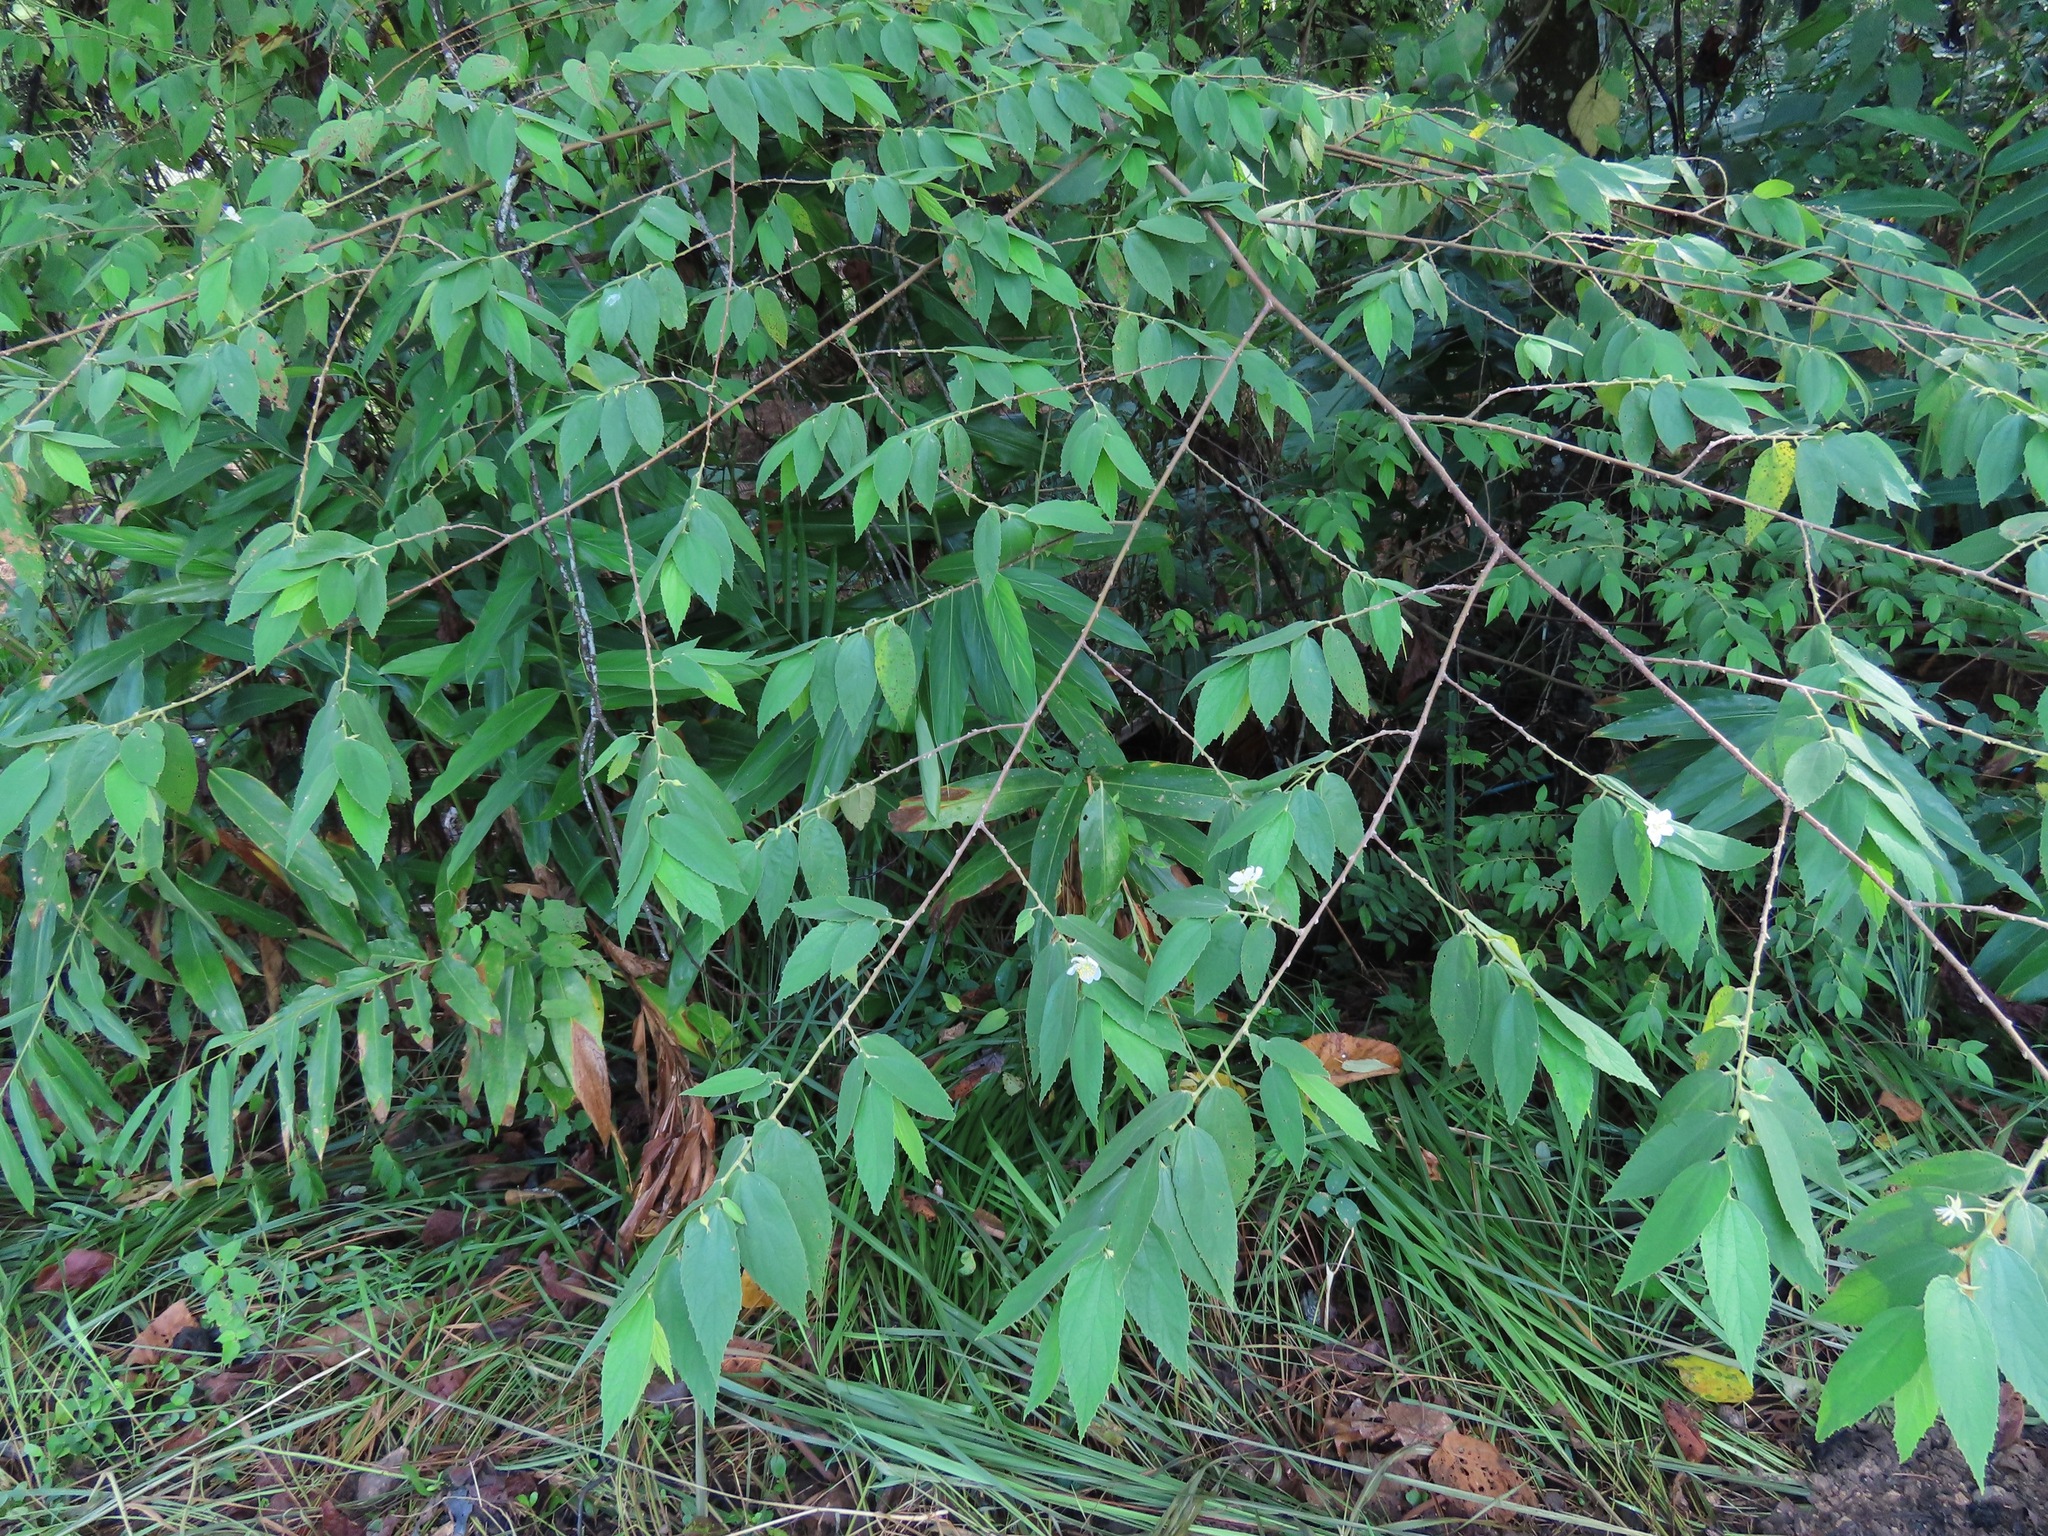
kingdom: Plantae
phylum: Tracheophyta
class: Magnoliopsida
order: Malvales
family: Muntingiaceae
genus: Muntingia
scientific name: Muntingia calabura
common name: Strawberrytree
